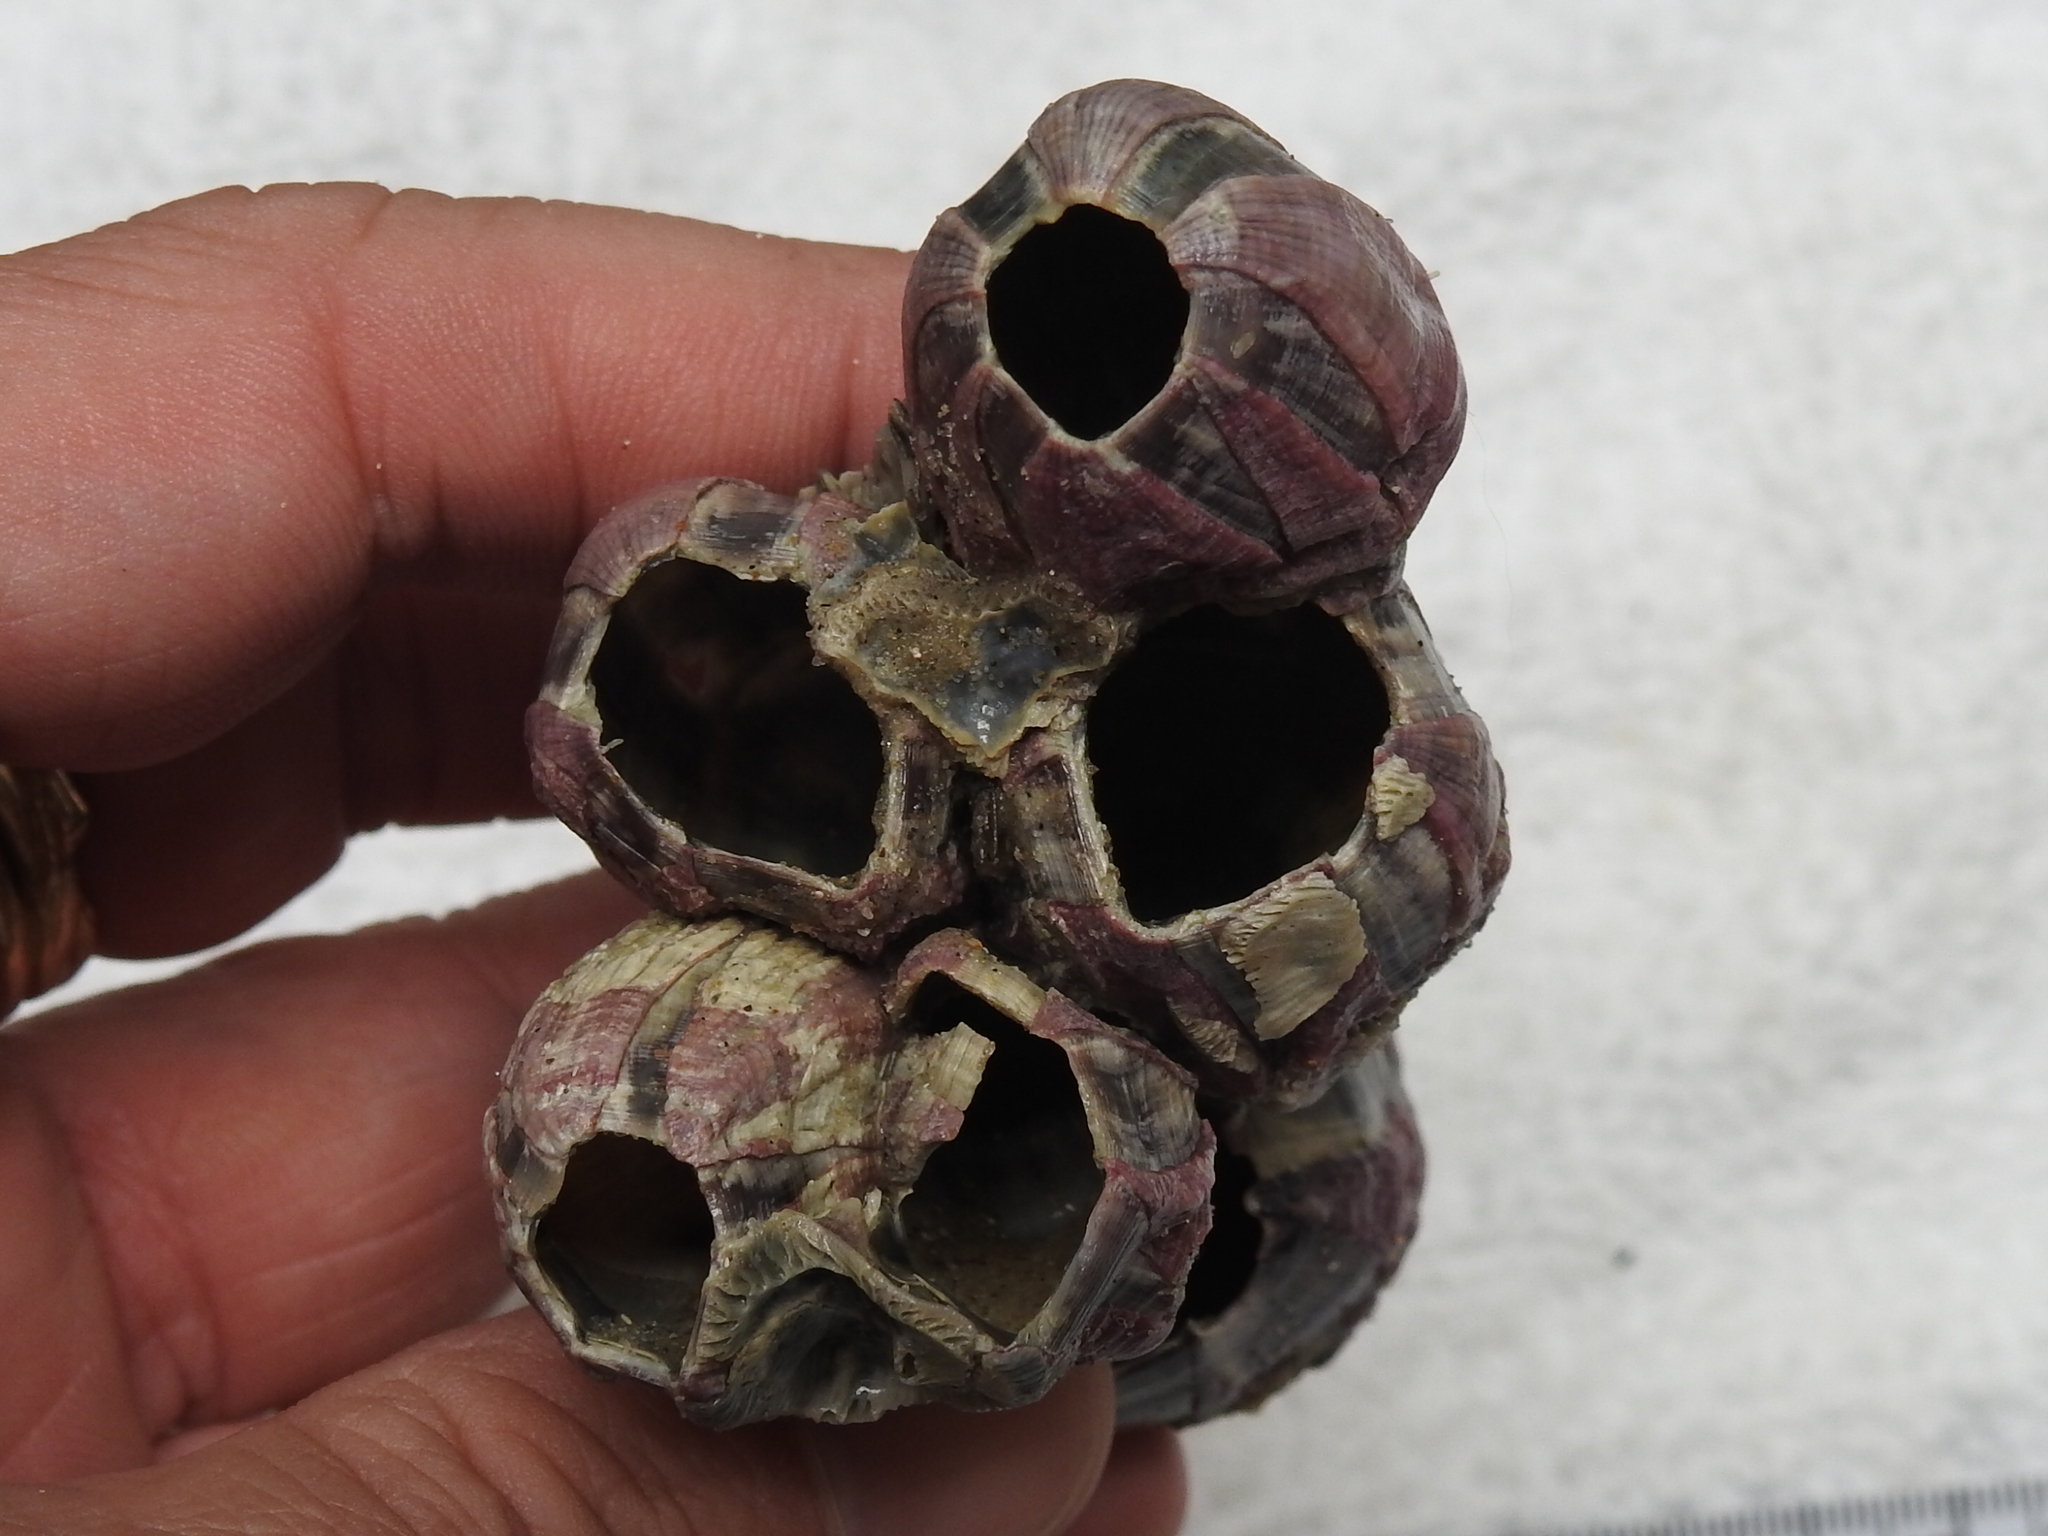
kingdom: Animalia
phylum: Arthropoda
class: Maxillopoda
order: Sessilia
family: Balanidae
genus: Megabalanus
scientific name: Megabalanus tintinnabulum
